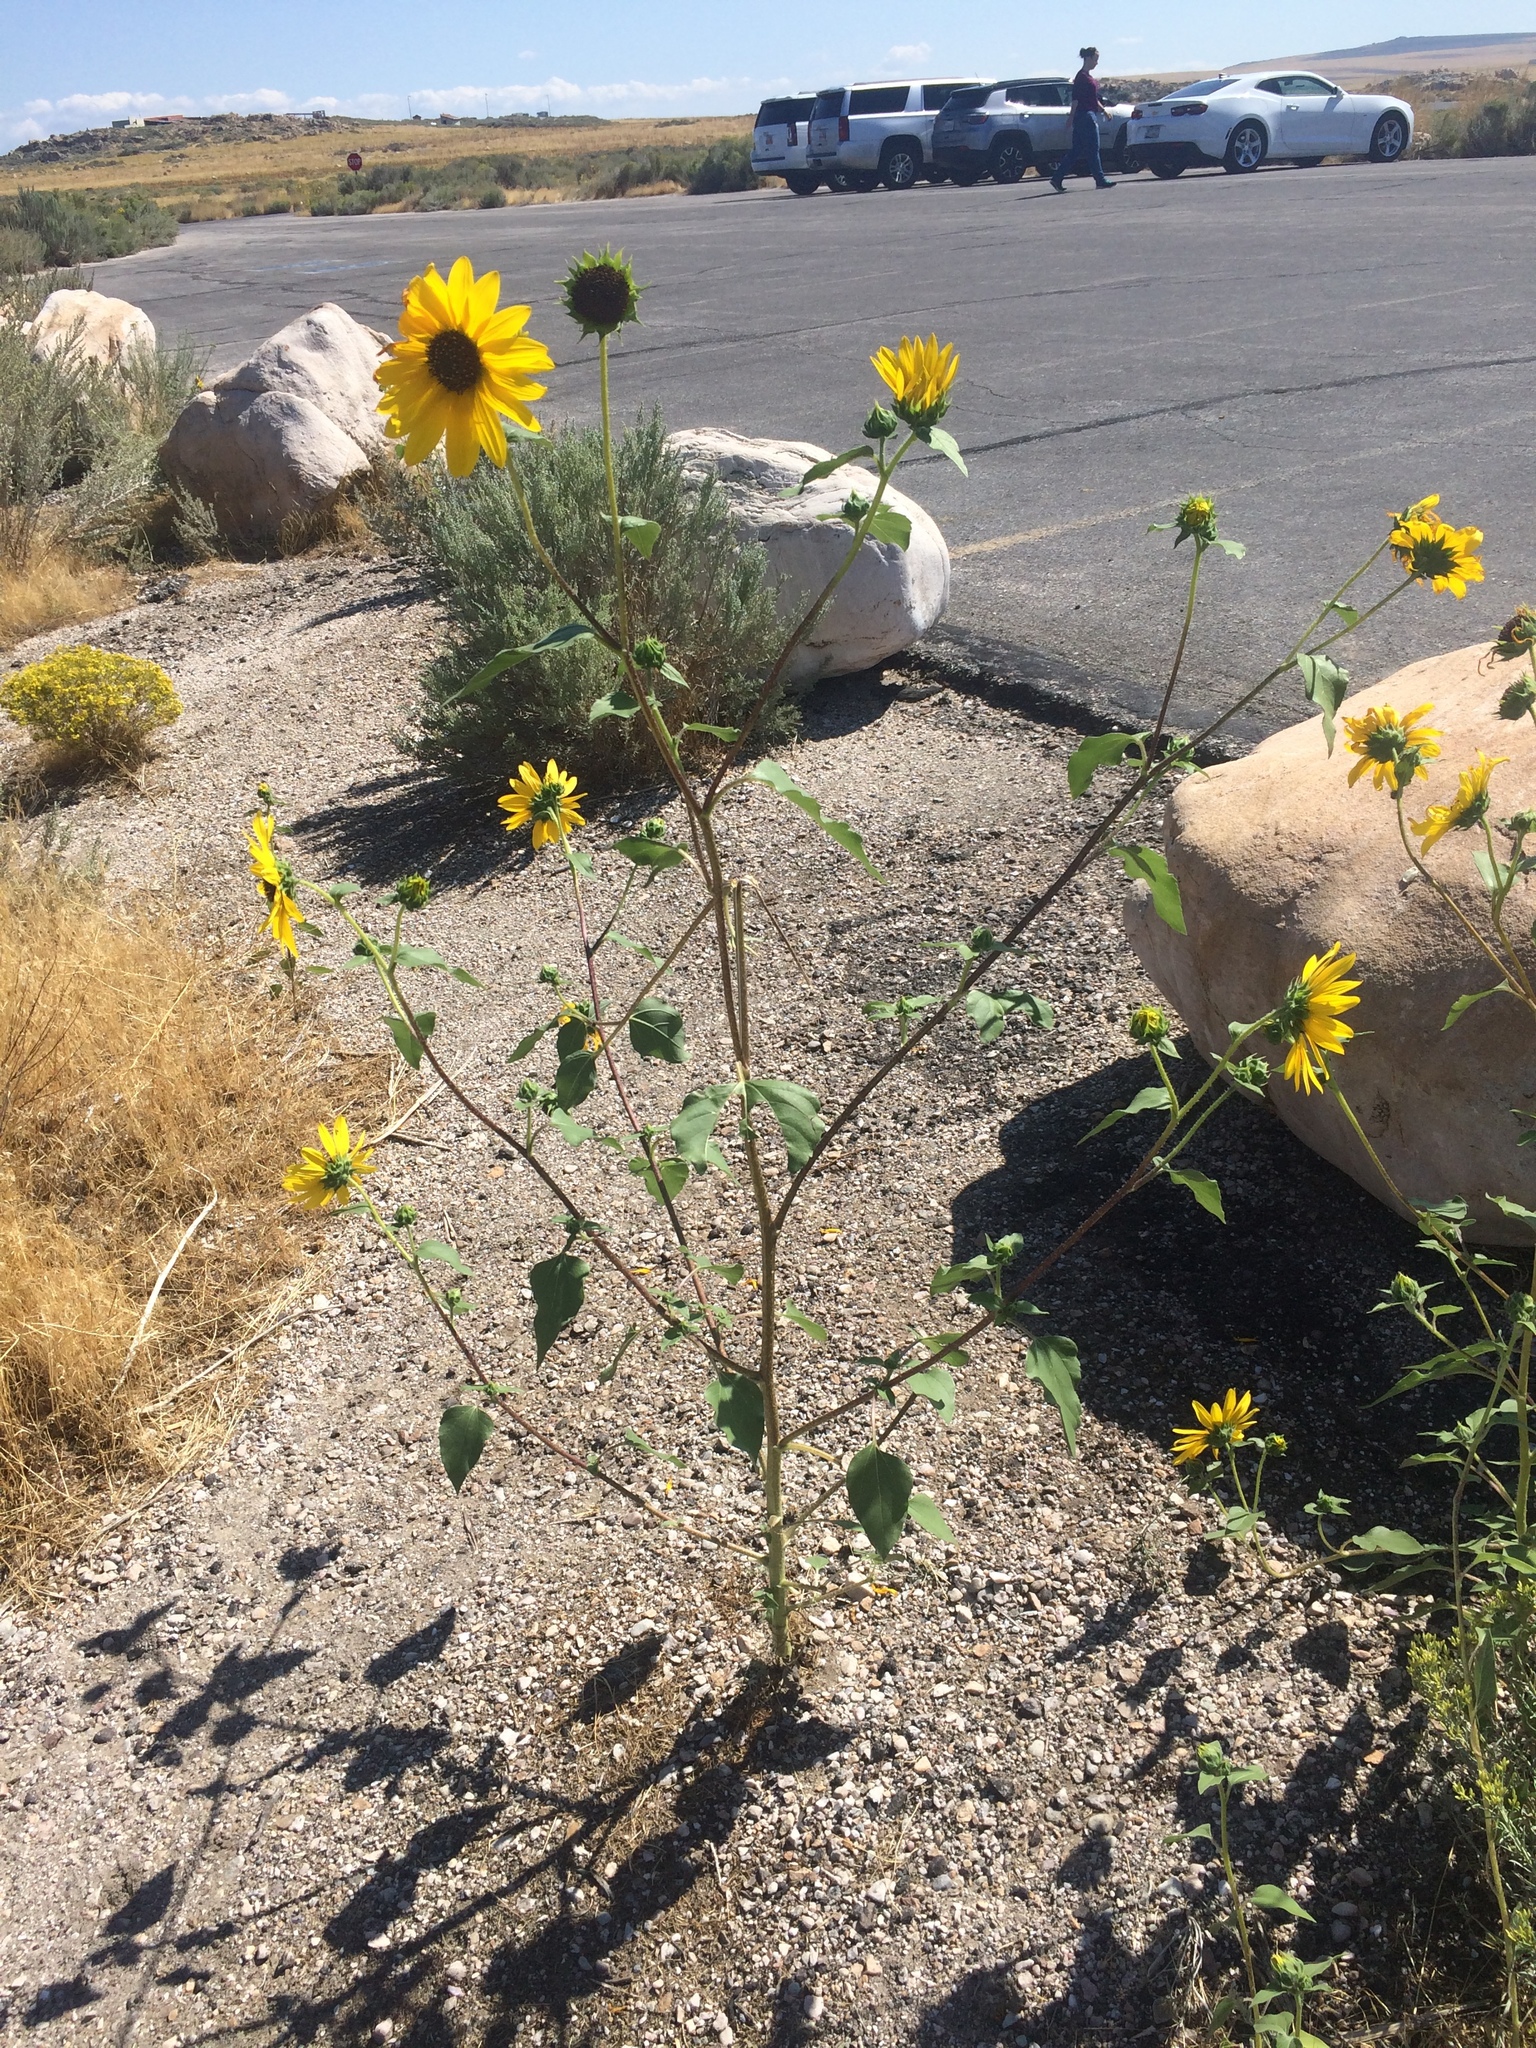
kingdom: Plantae
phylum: Tracheophyta
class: Magnoliopsida
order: Asterales
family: Asteraceae
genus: Helianthus
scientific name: Helianthus annuus
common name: Sunflower
